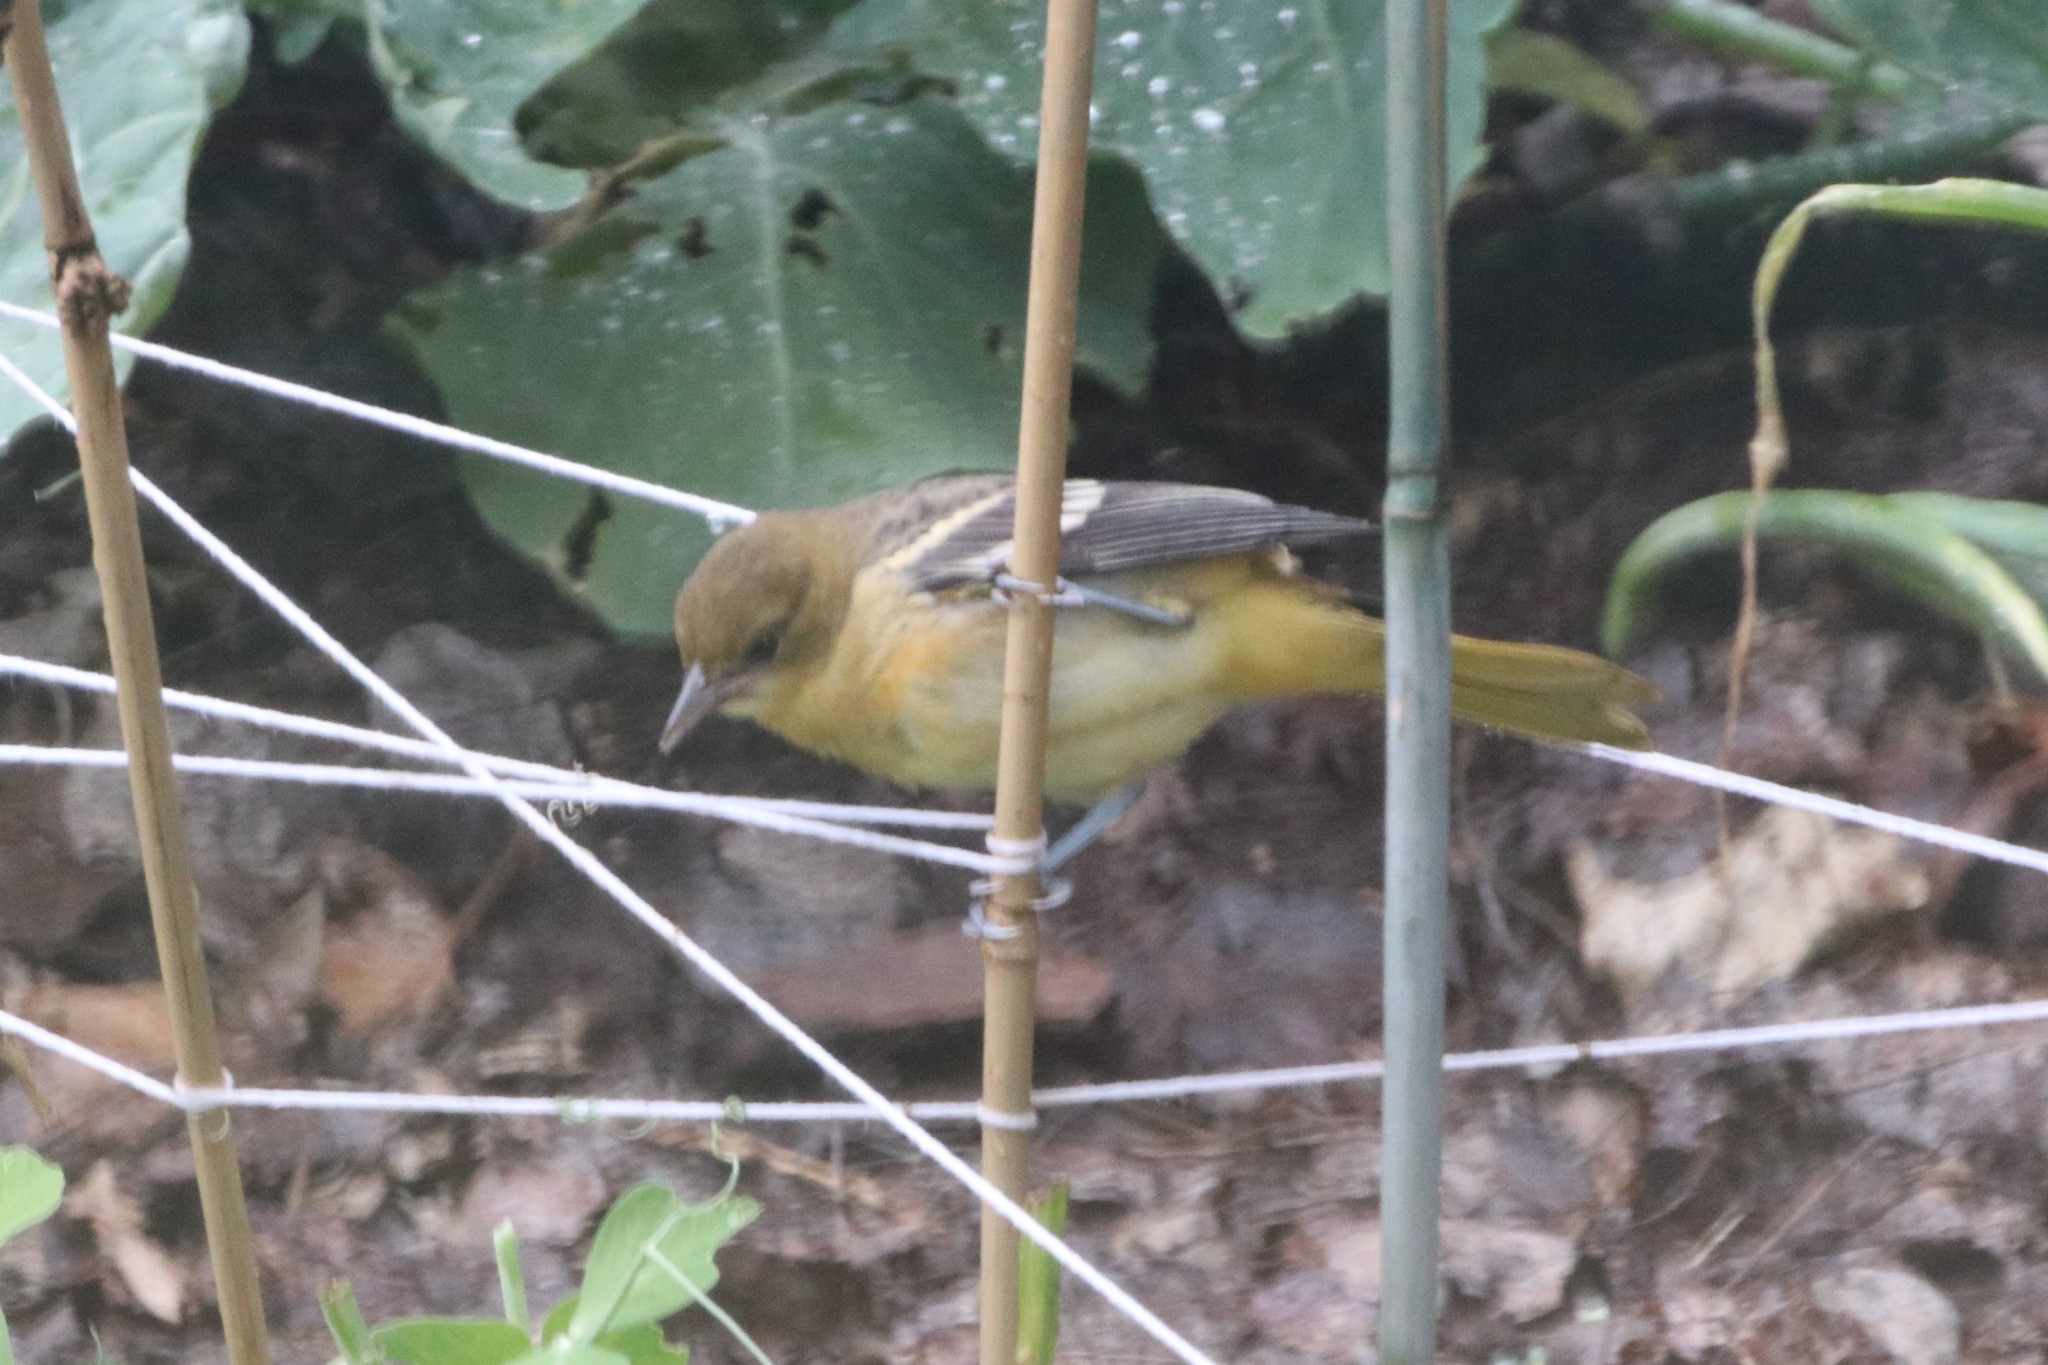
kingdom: Animalia
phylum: Chordata
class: Aves
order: Passeriformes
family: Icteridae
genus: Icterus
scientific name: Icterus galbula
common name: Baltimore oriole
